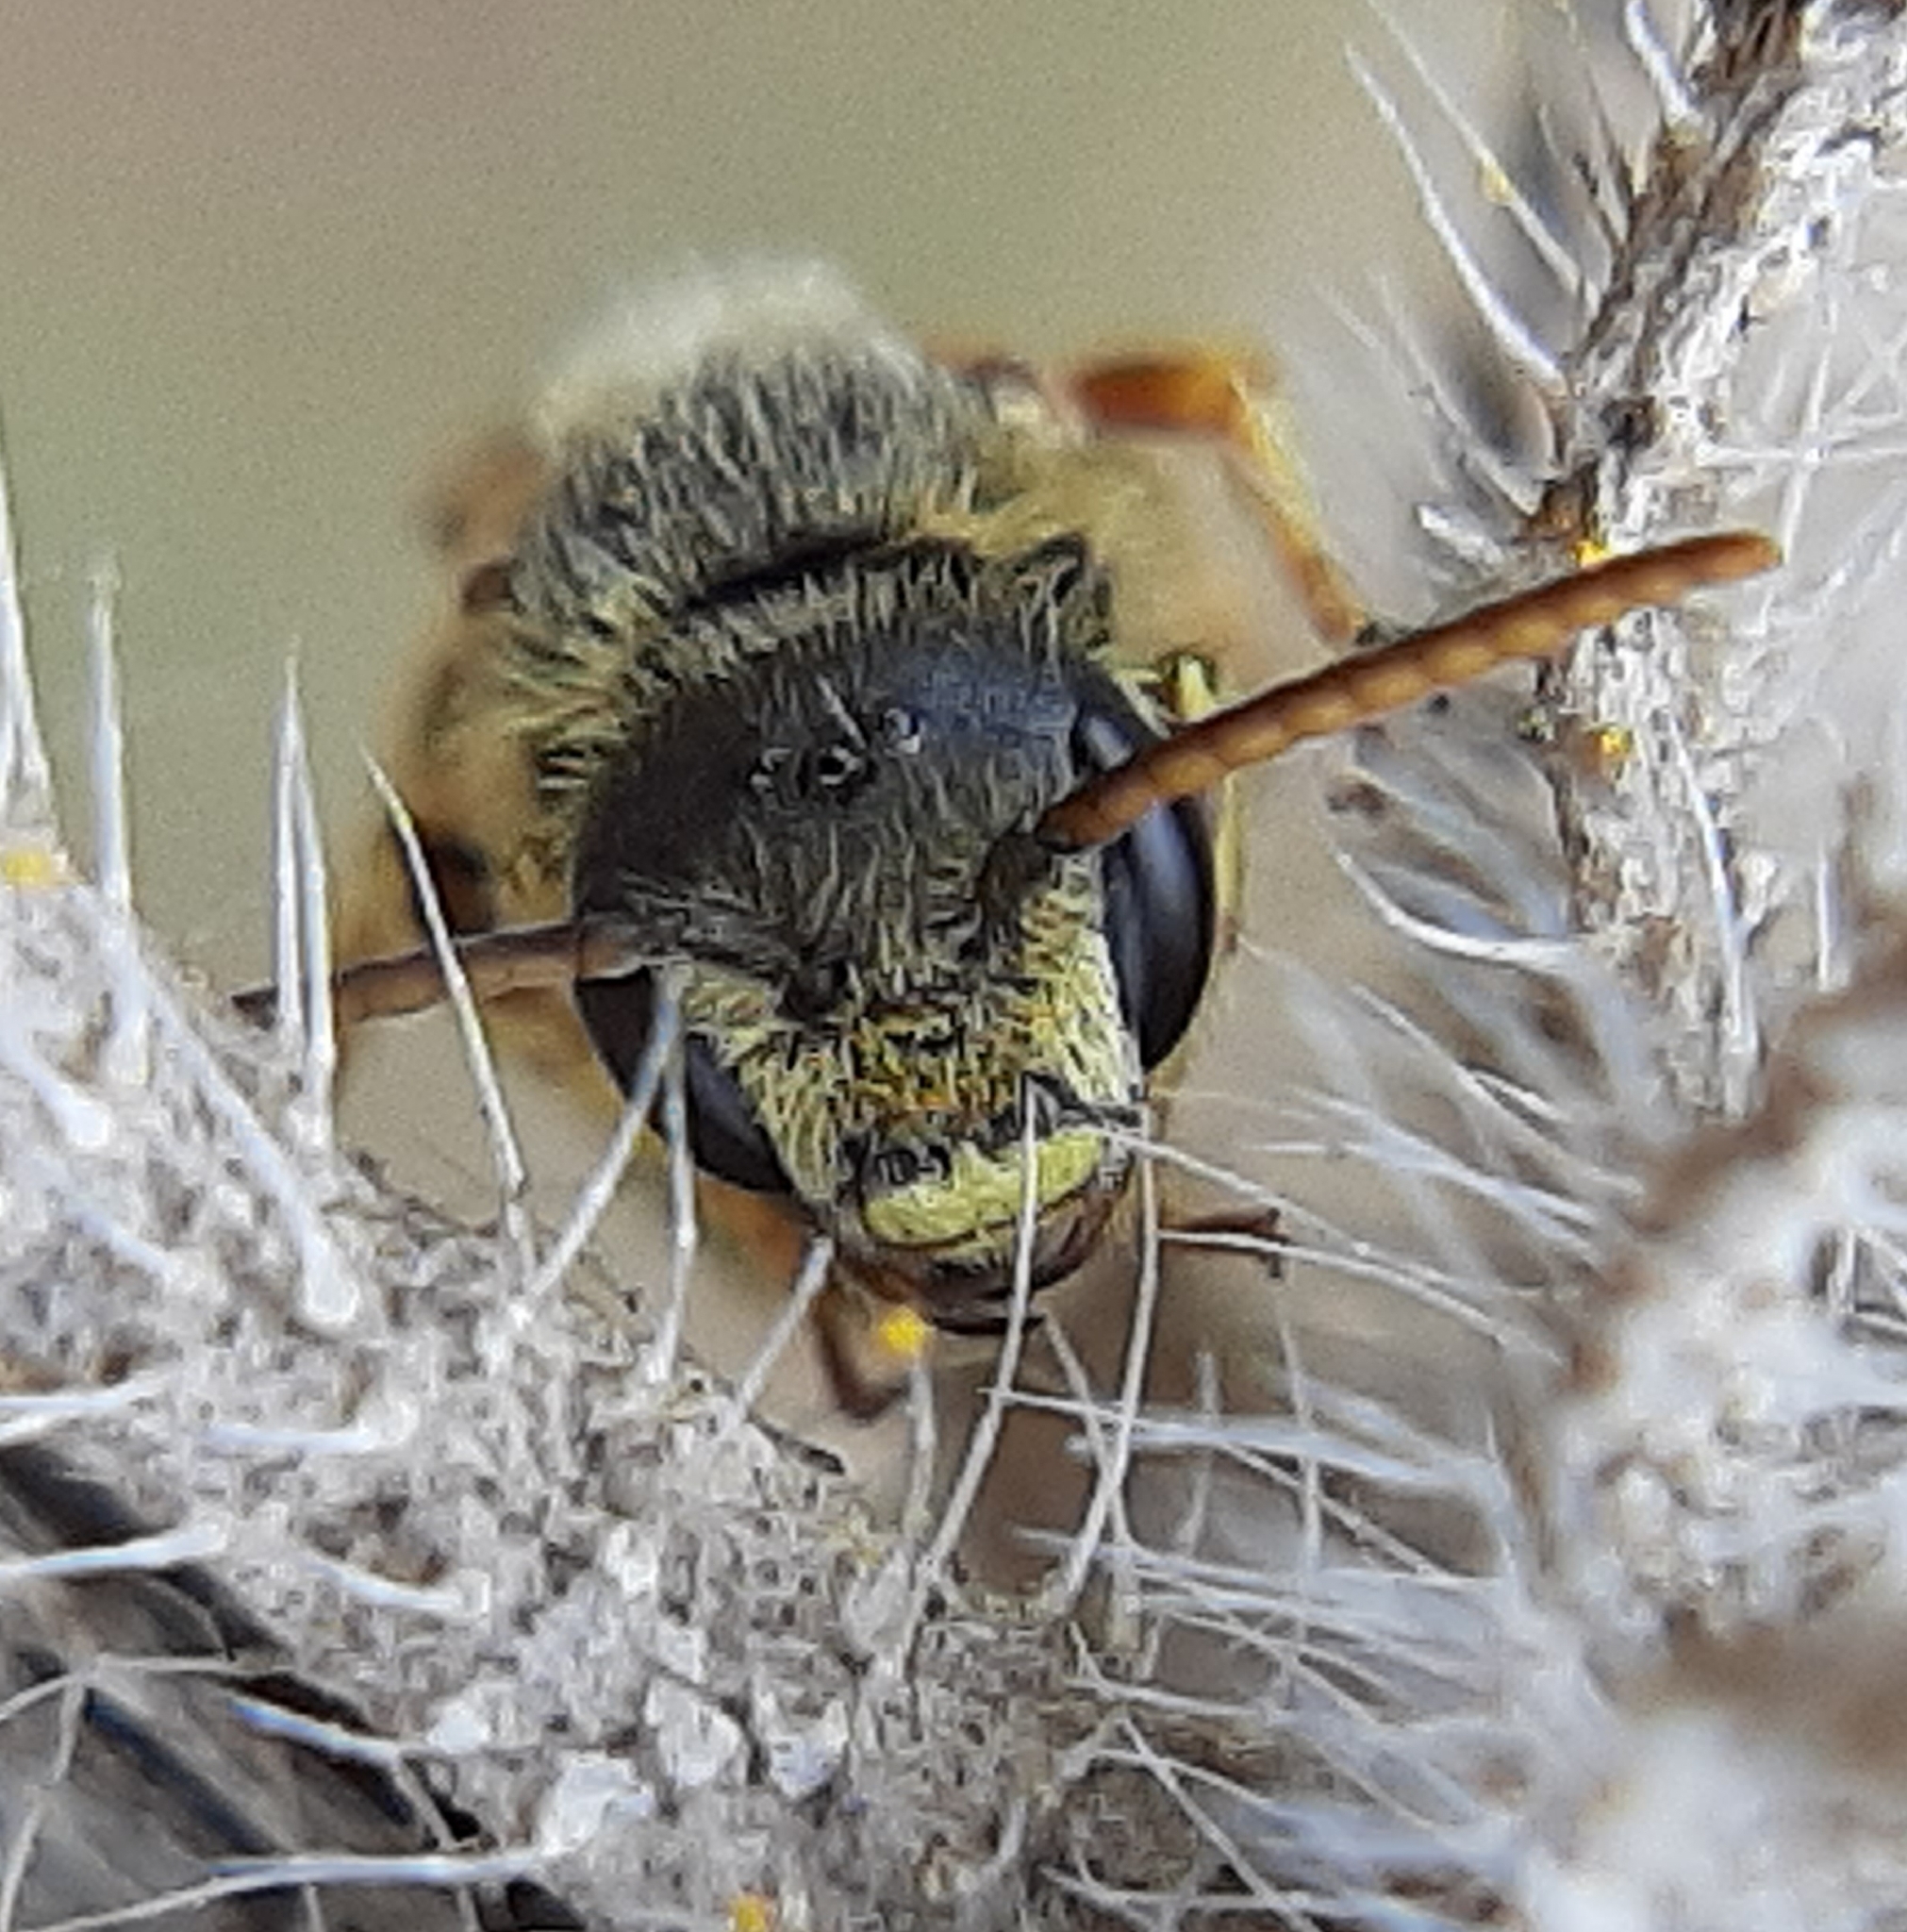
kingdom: Animalia
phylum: Arthropoda
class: Insecta
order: Hymenoptera
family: Halictidae
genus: Halictus
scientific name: Halictus ligatus
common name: Ligated furrow bee
